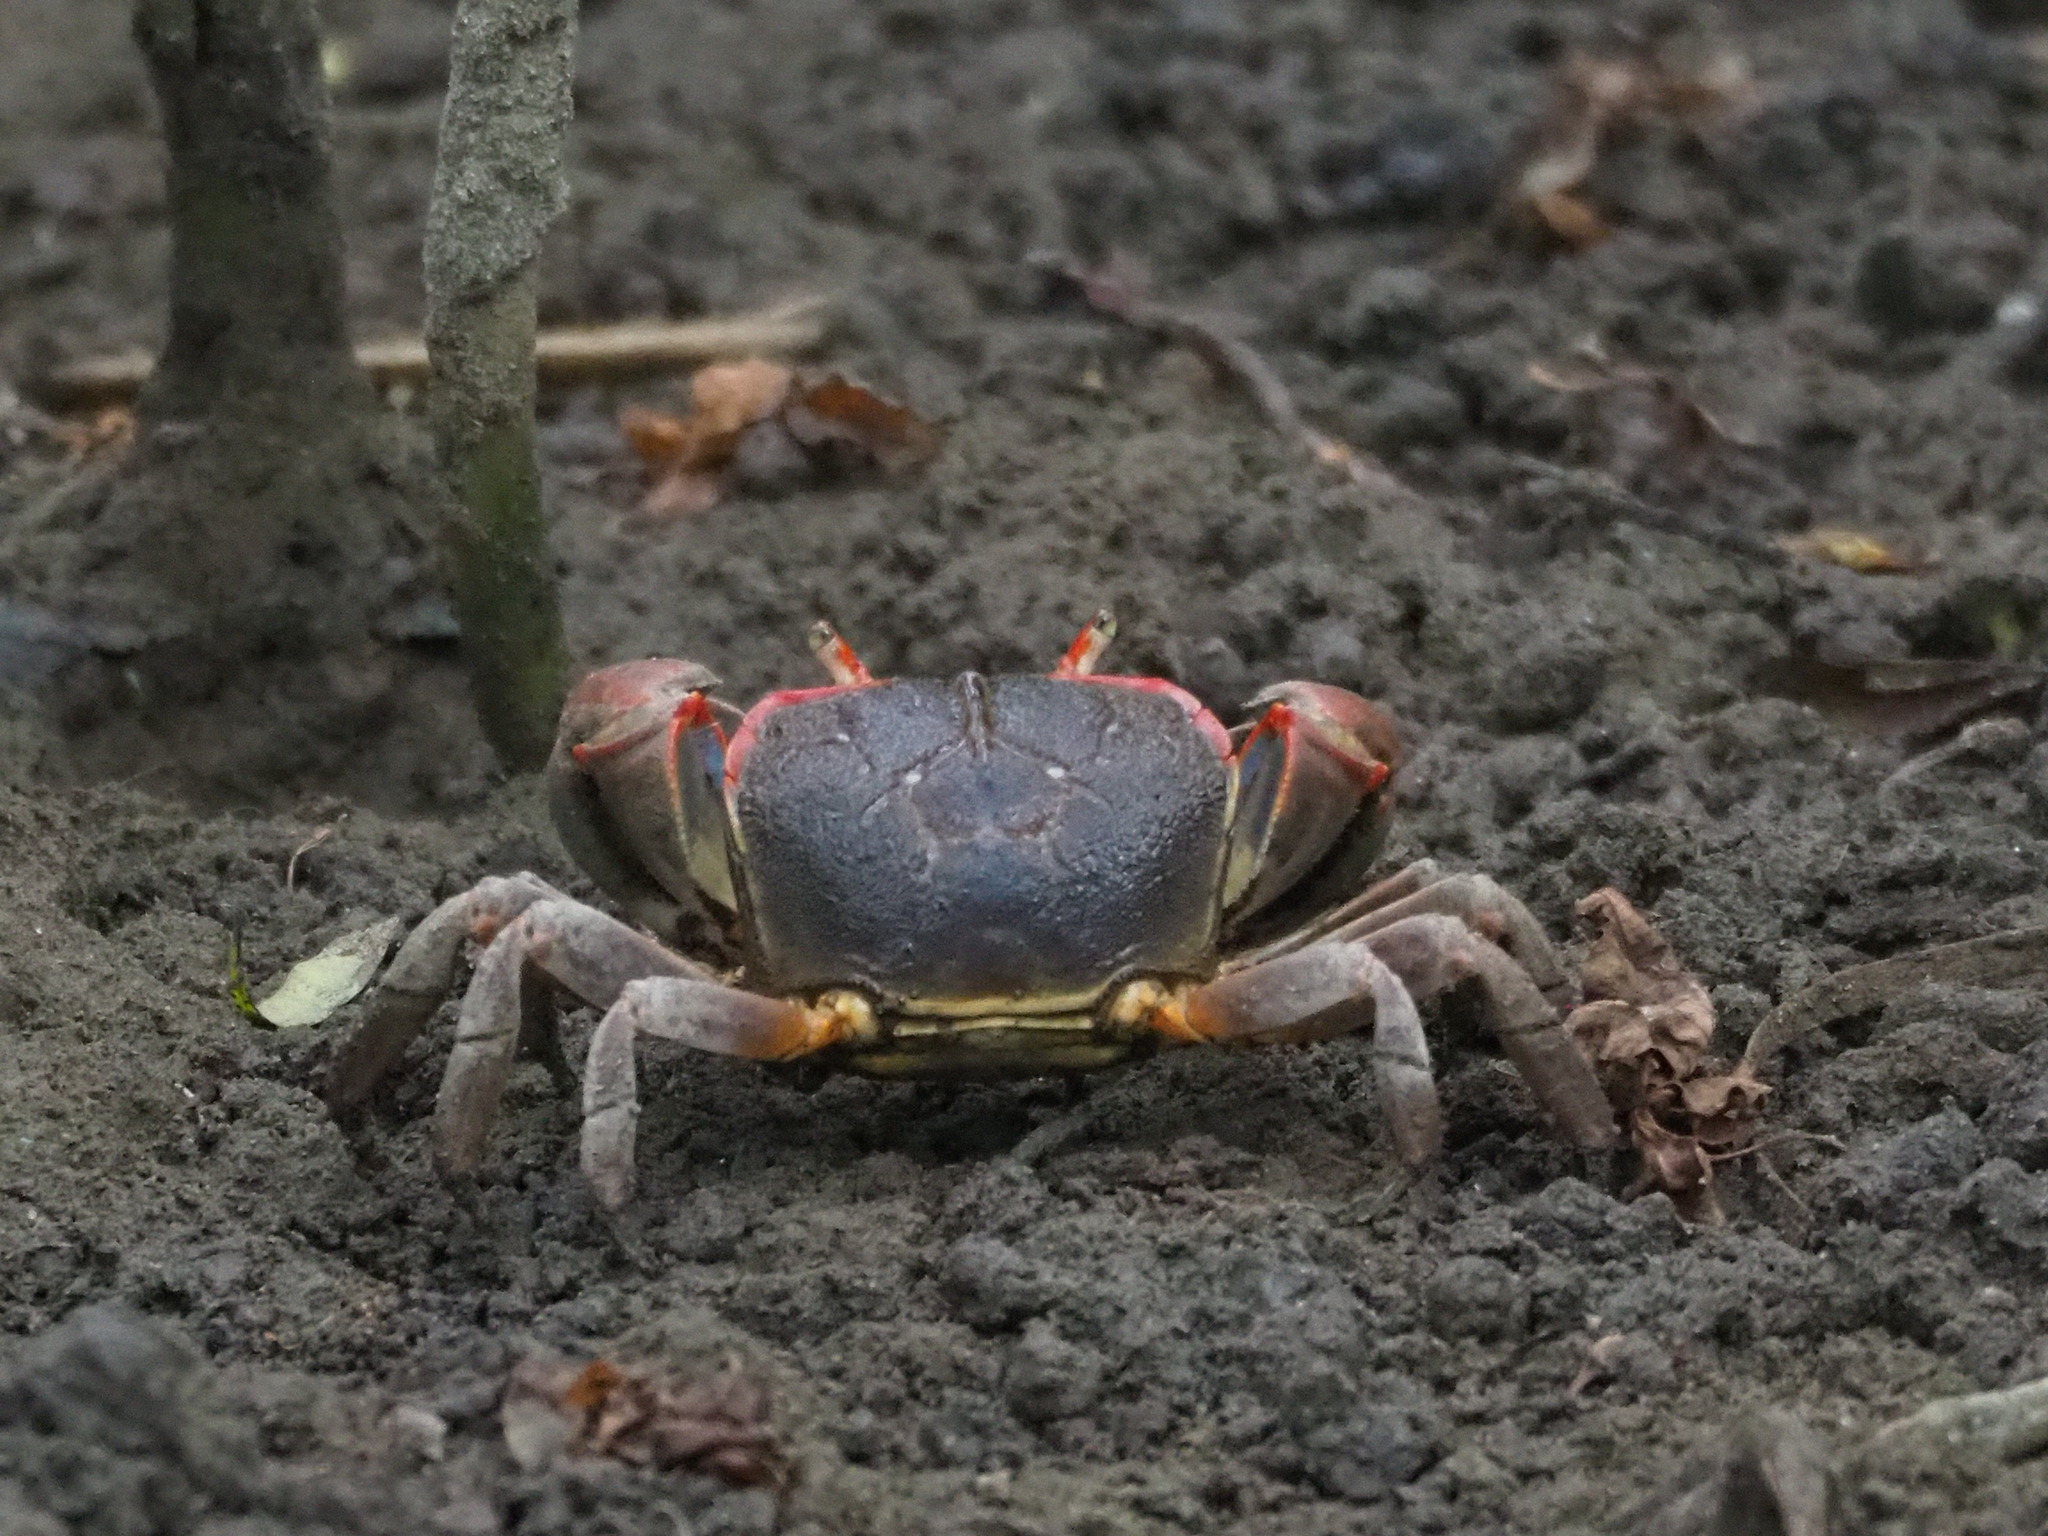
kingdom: Animalia
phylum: Arthropoda
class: Malacostraca
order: Decapoda
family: Varunidae
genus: Chasmagnathus
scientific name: Chasmagnathus convexus
